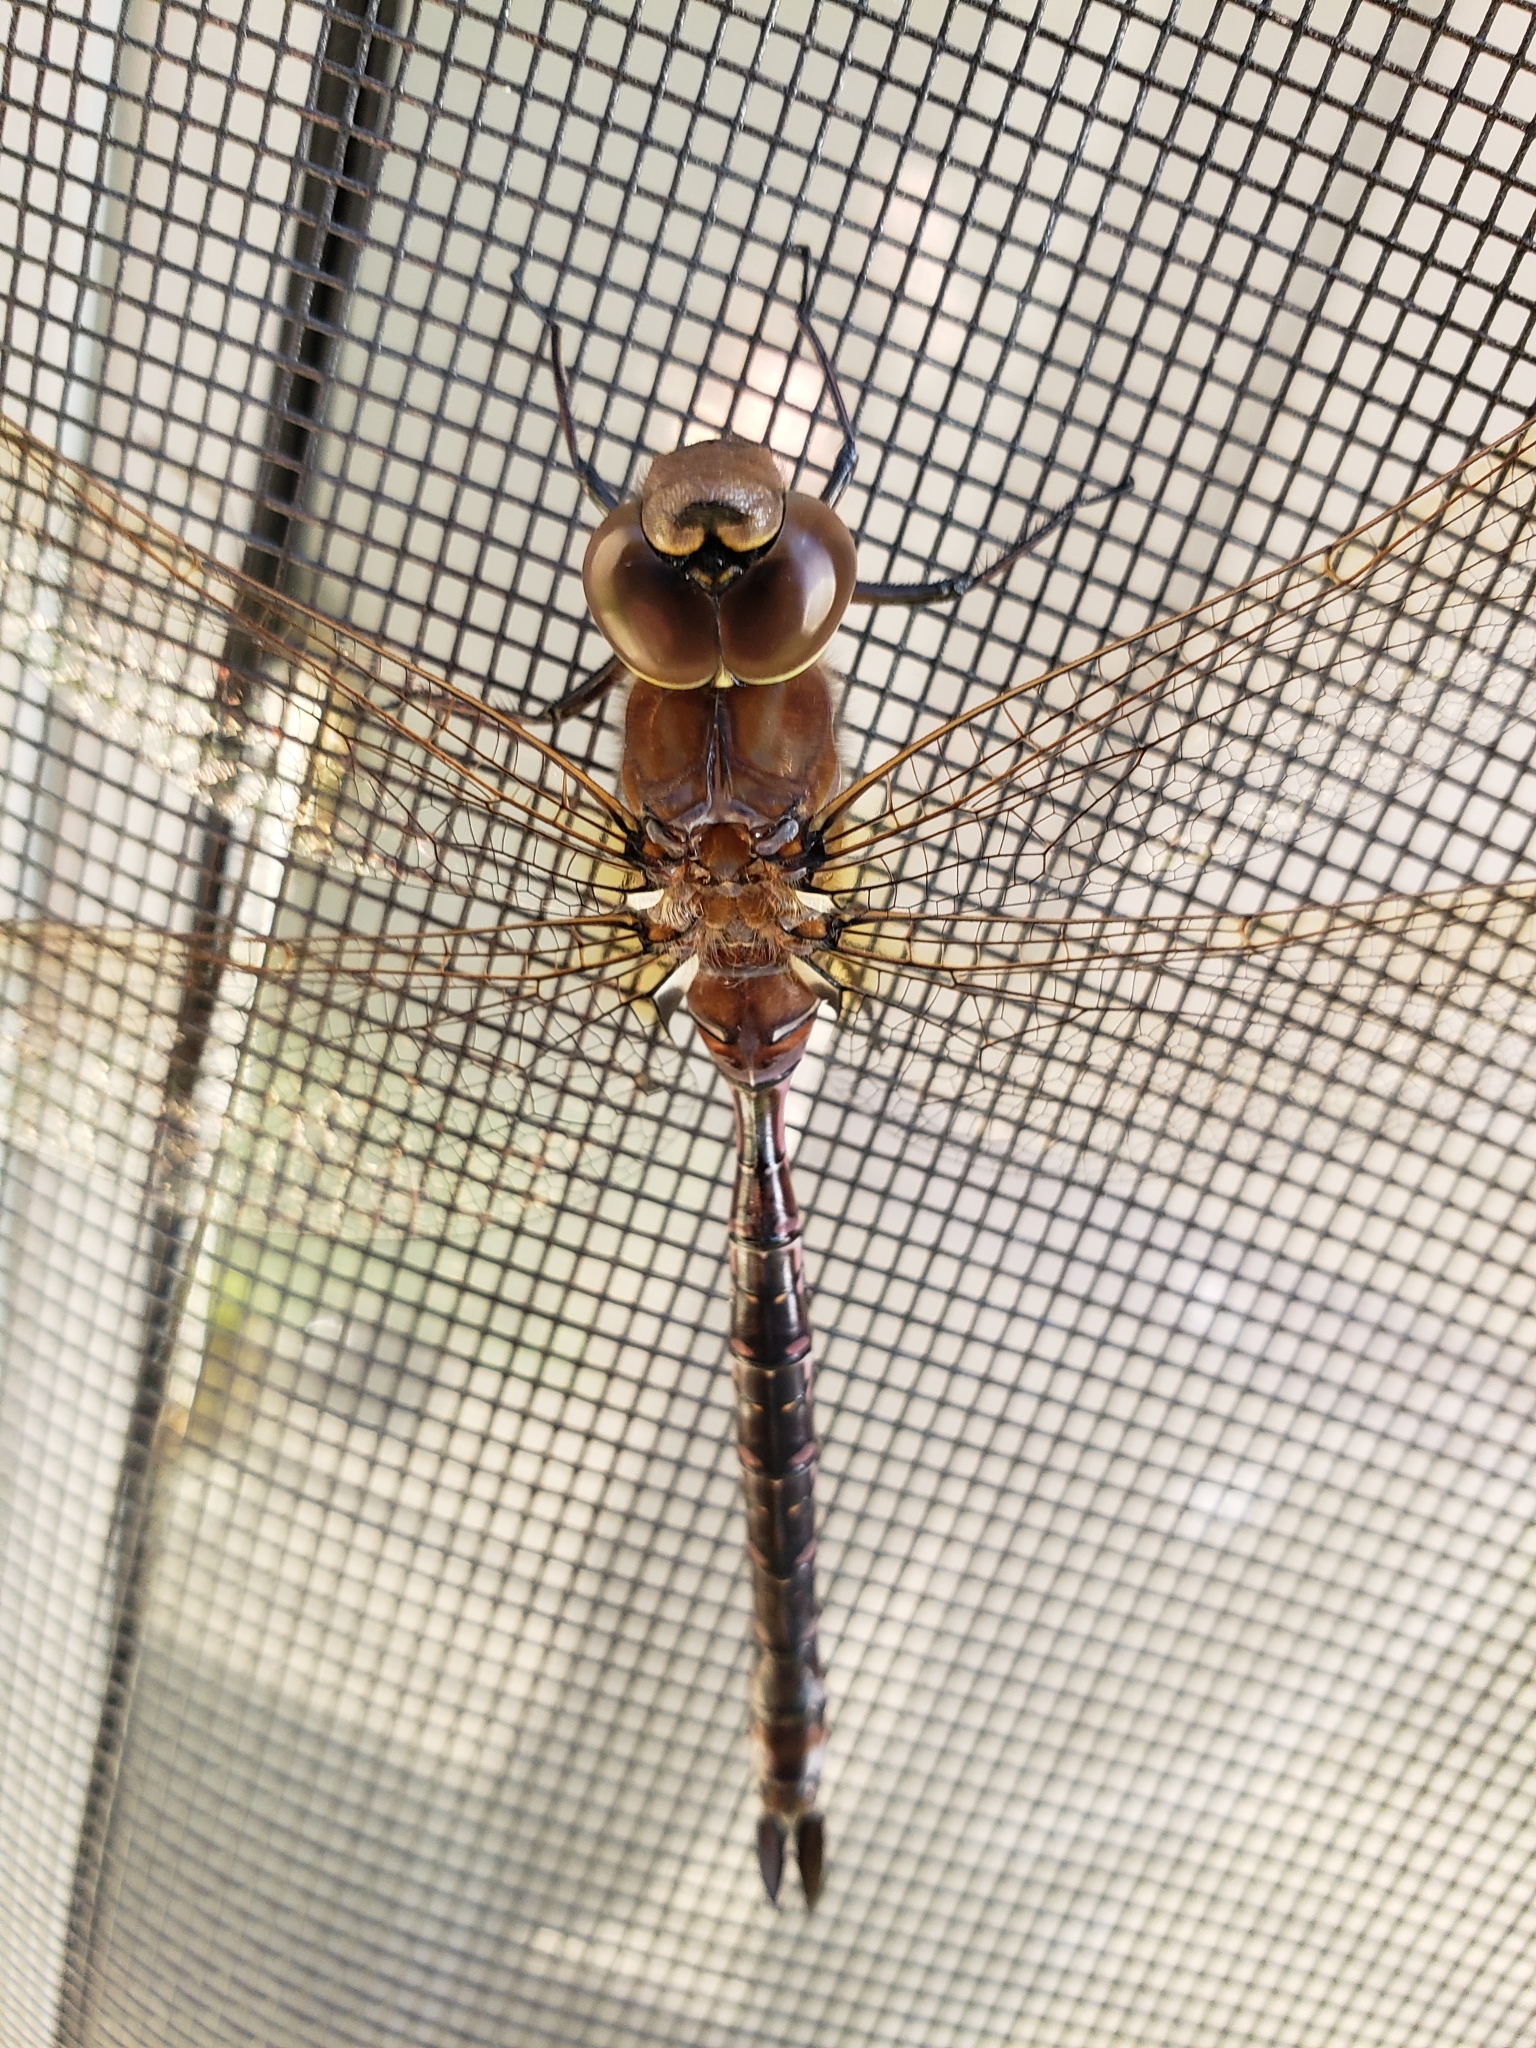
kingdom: Animalia
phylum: Arthropoda
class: Insecta
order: Odonata
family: Aeshnidae
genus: Aeshna
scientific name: Aeshna constricta
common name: Lance-tipped darner
